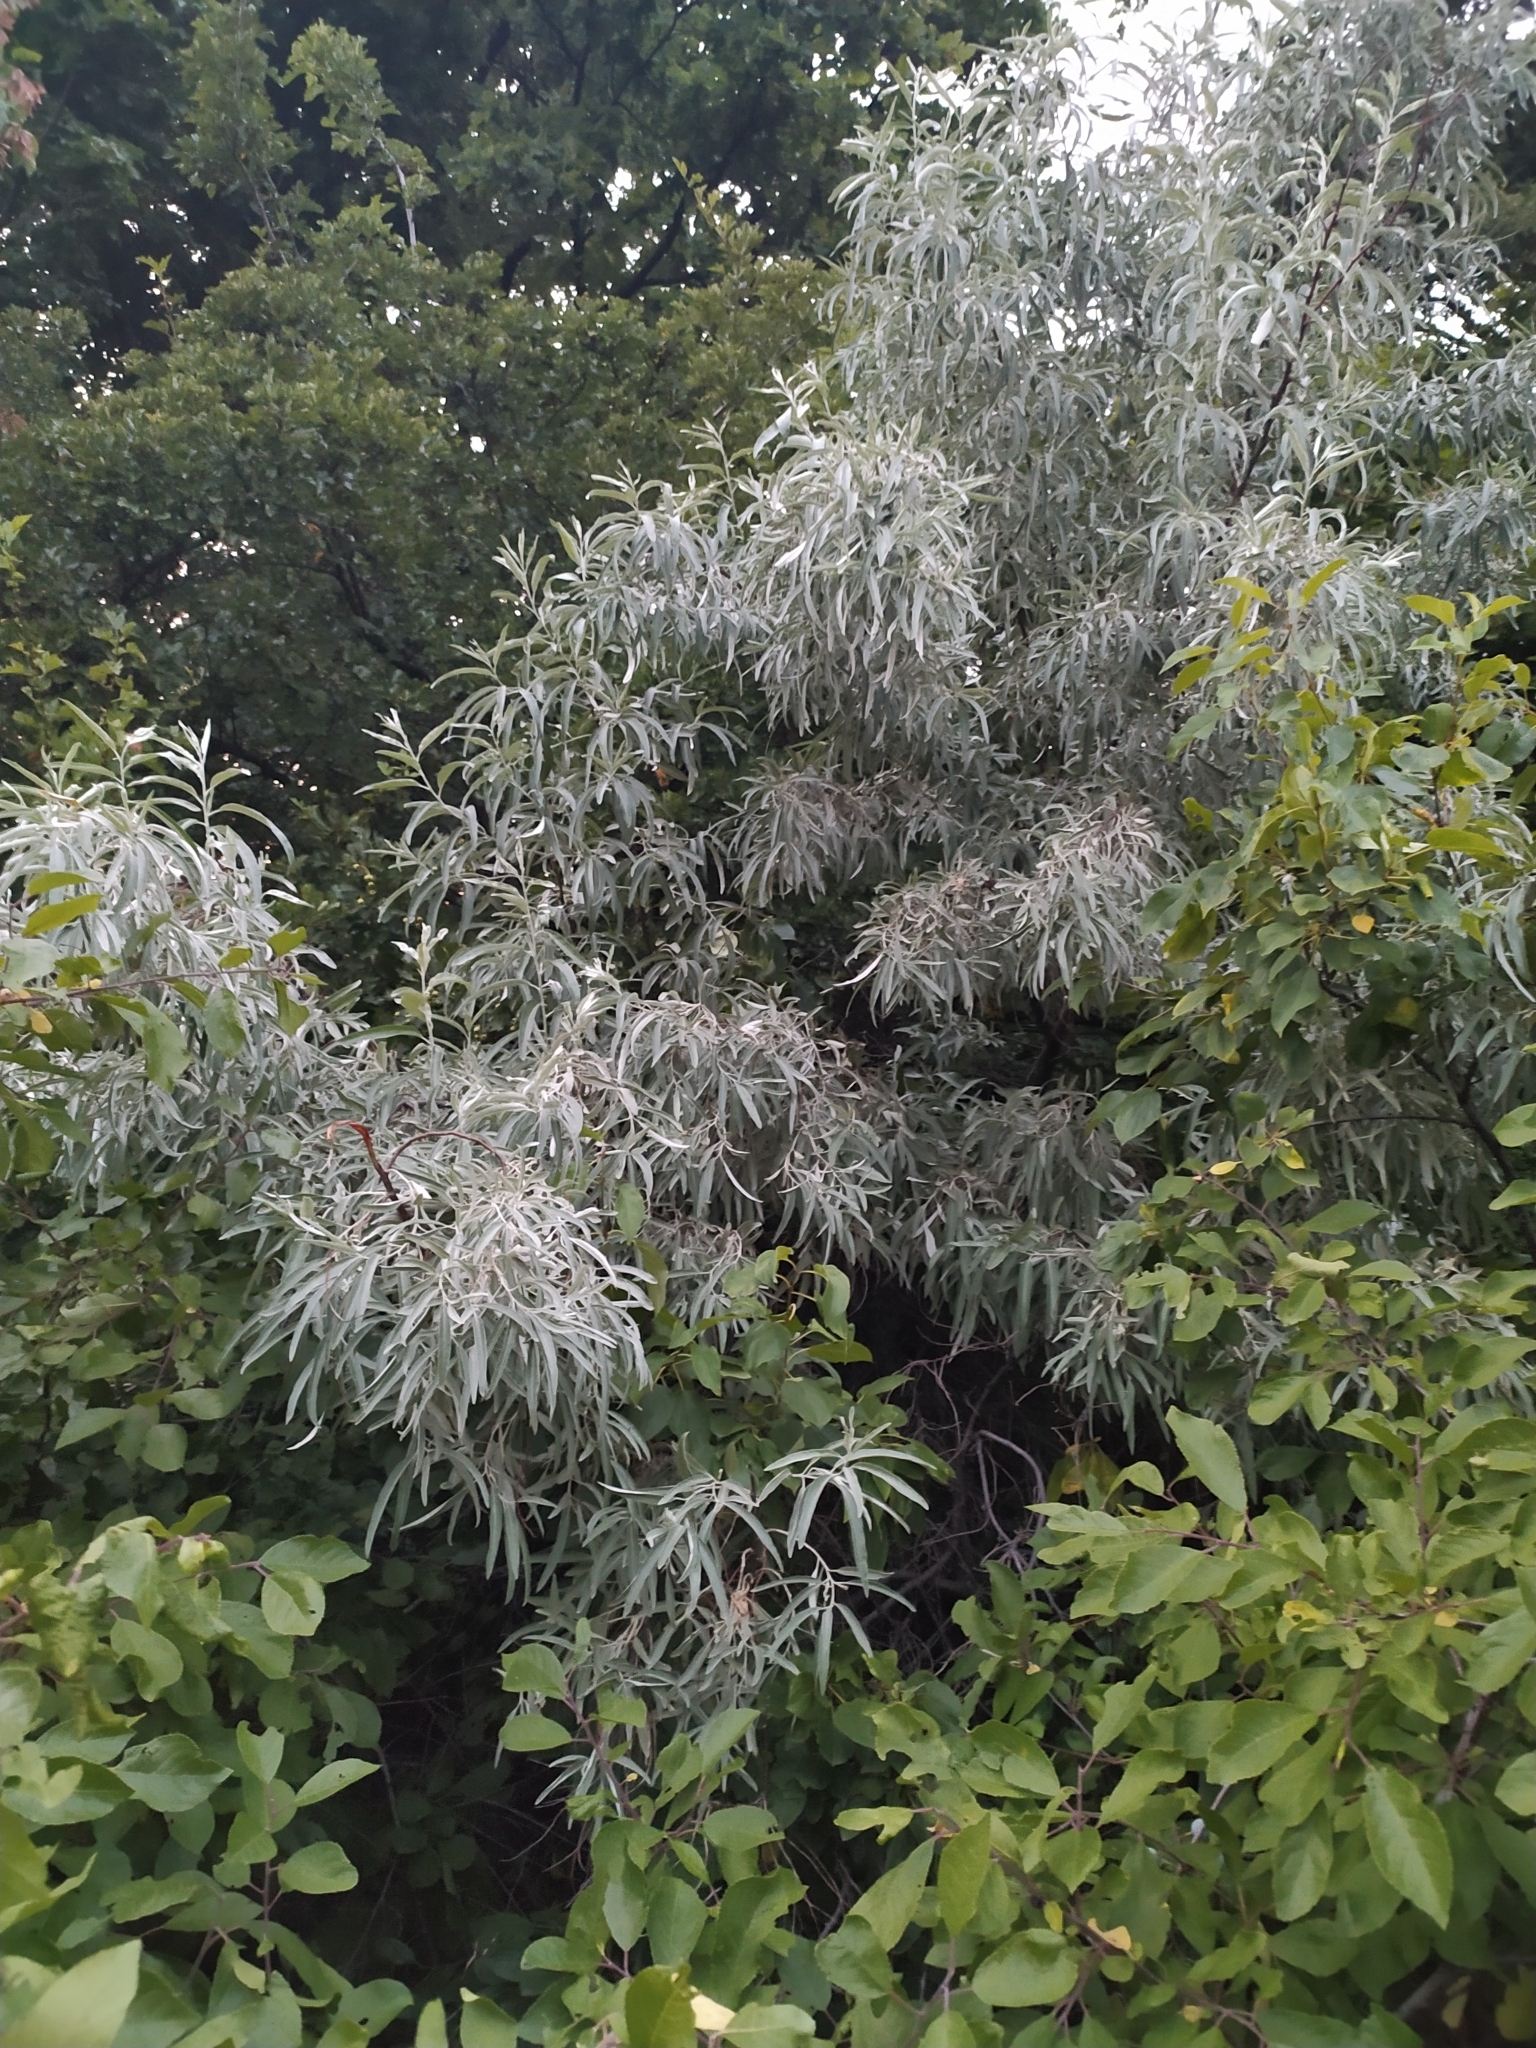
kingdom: Plantae
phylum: Tracheophyta
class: Magnoliopsida
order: Rosales
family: Elaeagnaceae
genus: Elaeagnus
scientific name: Elaeagnus angustifolia
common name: Russian olive
